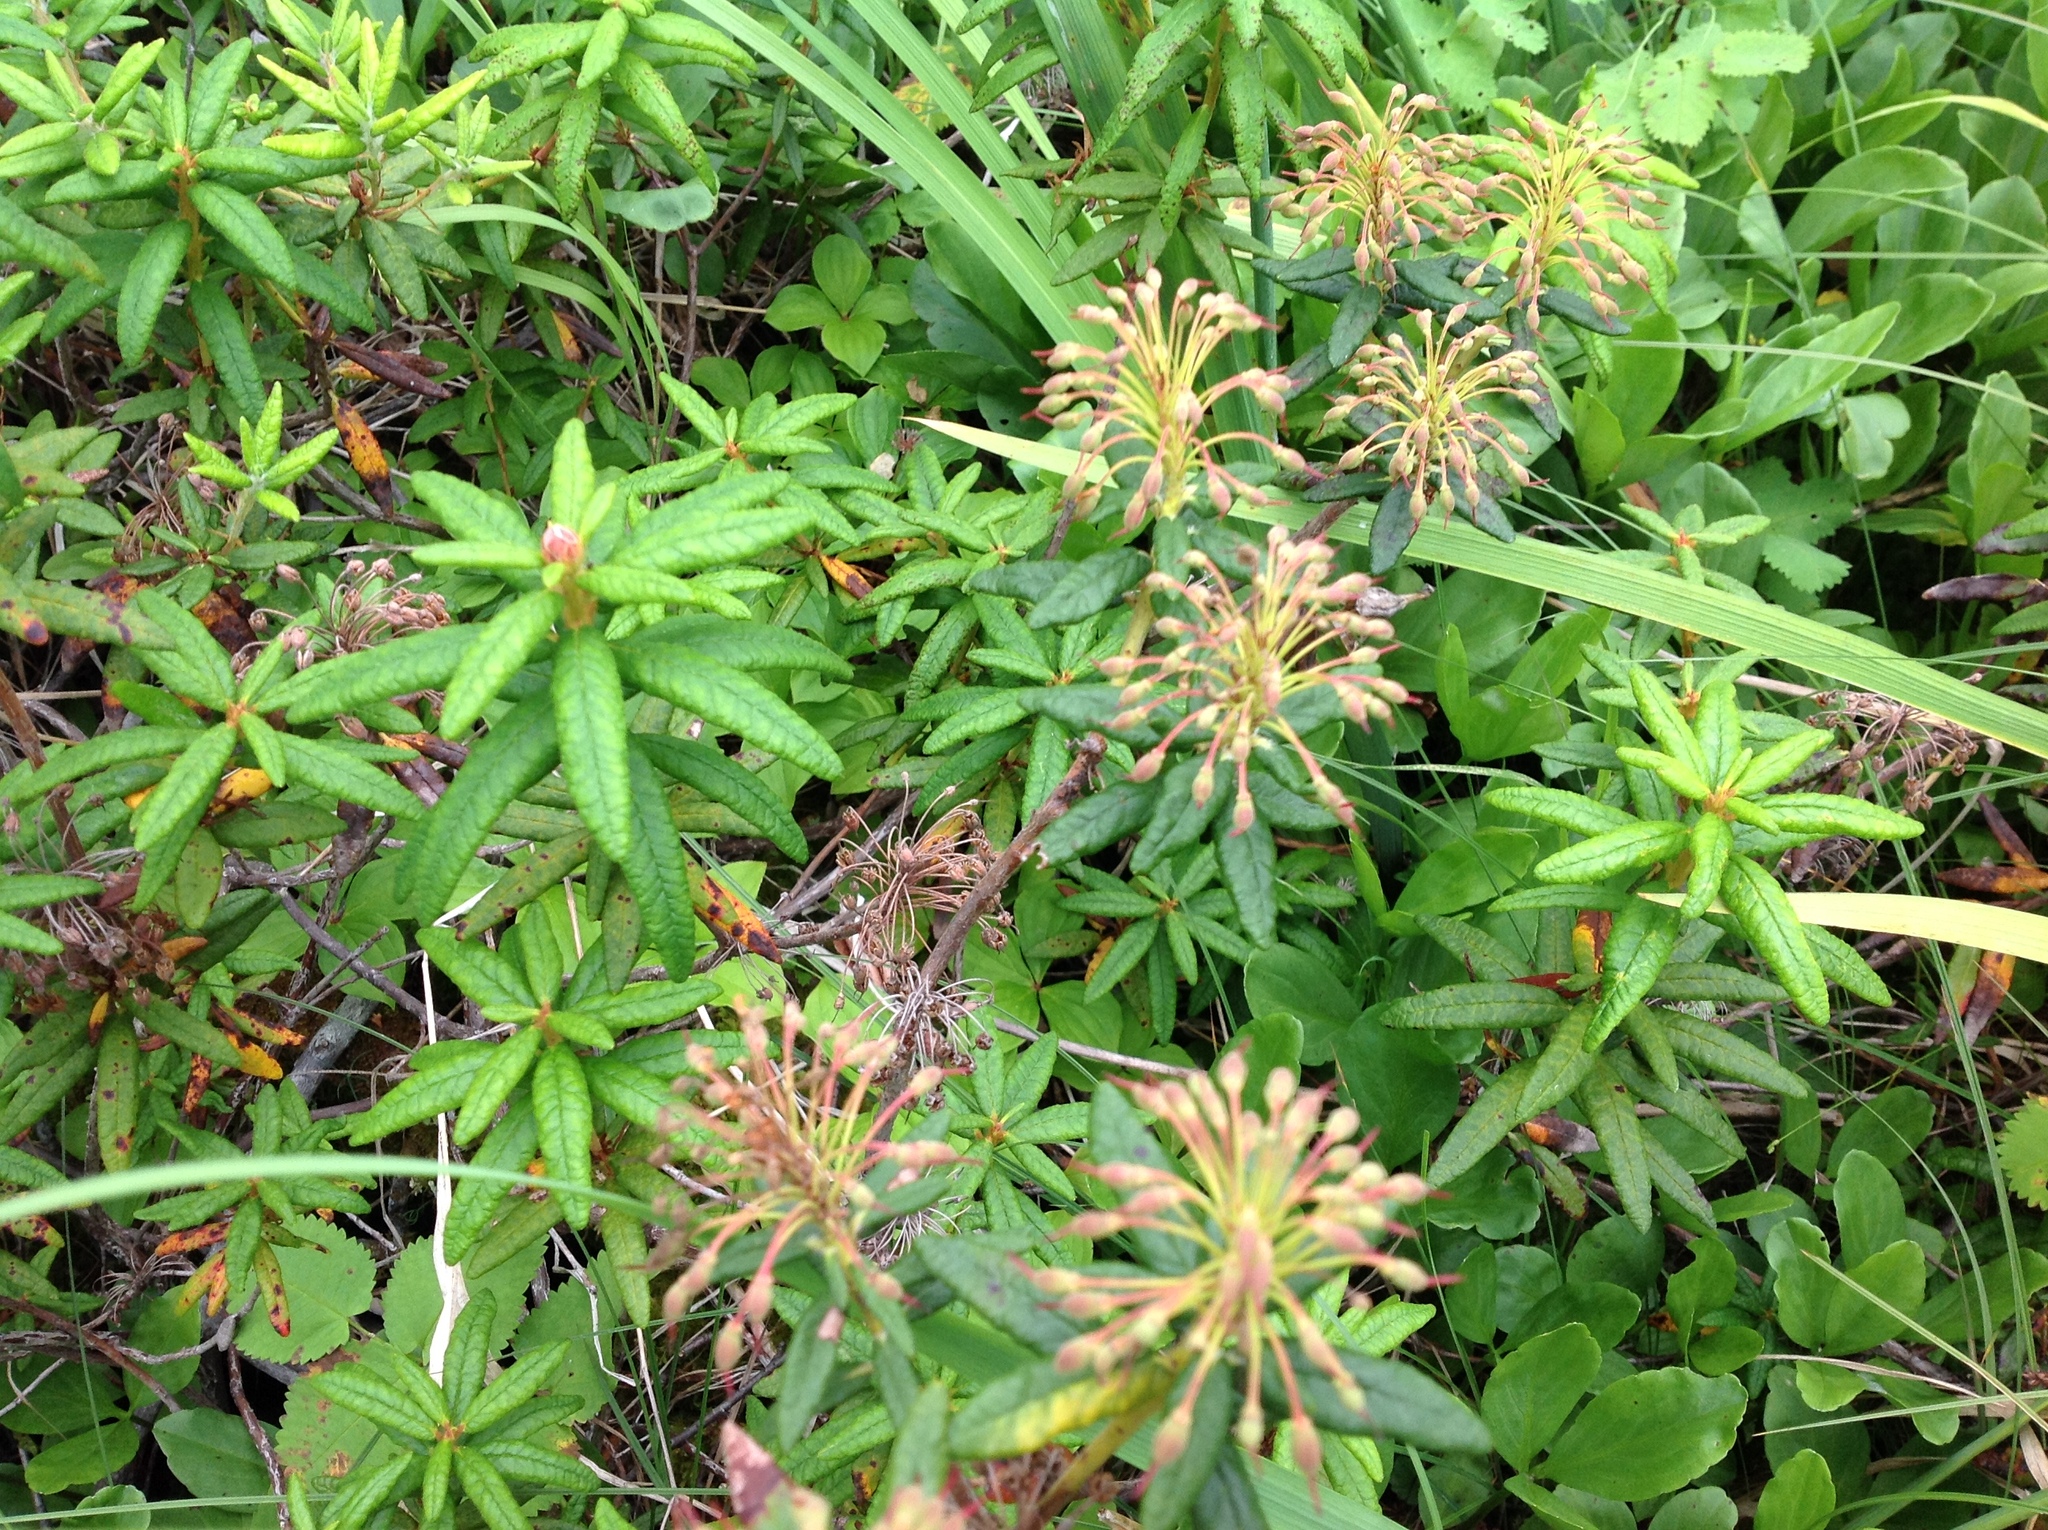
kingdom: Plantae
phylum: Tracheophyta
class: Magnoliopsida
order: Ericales
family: Ericaceae
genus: Rhododendron
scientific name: Rhododendron groenlandicum
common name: Bog labrador tea
